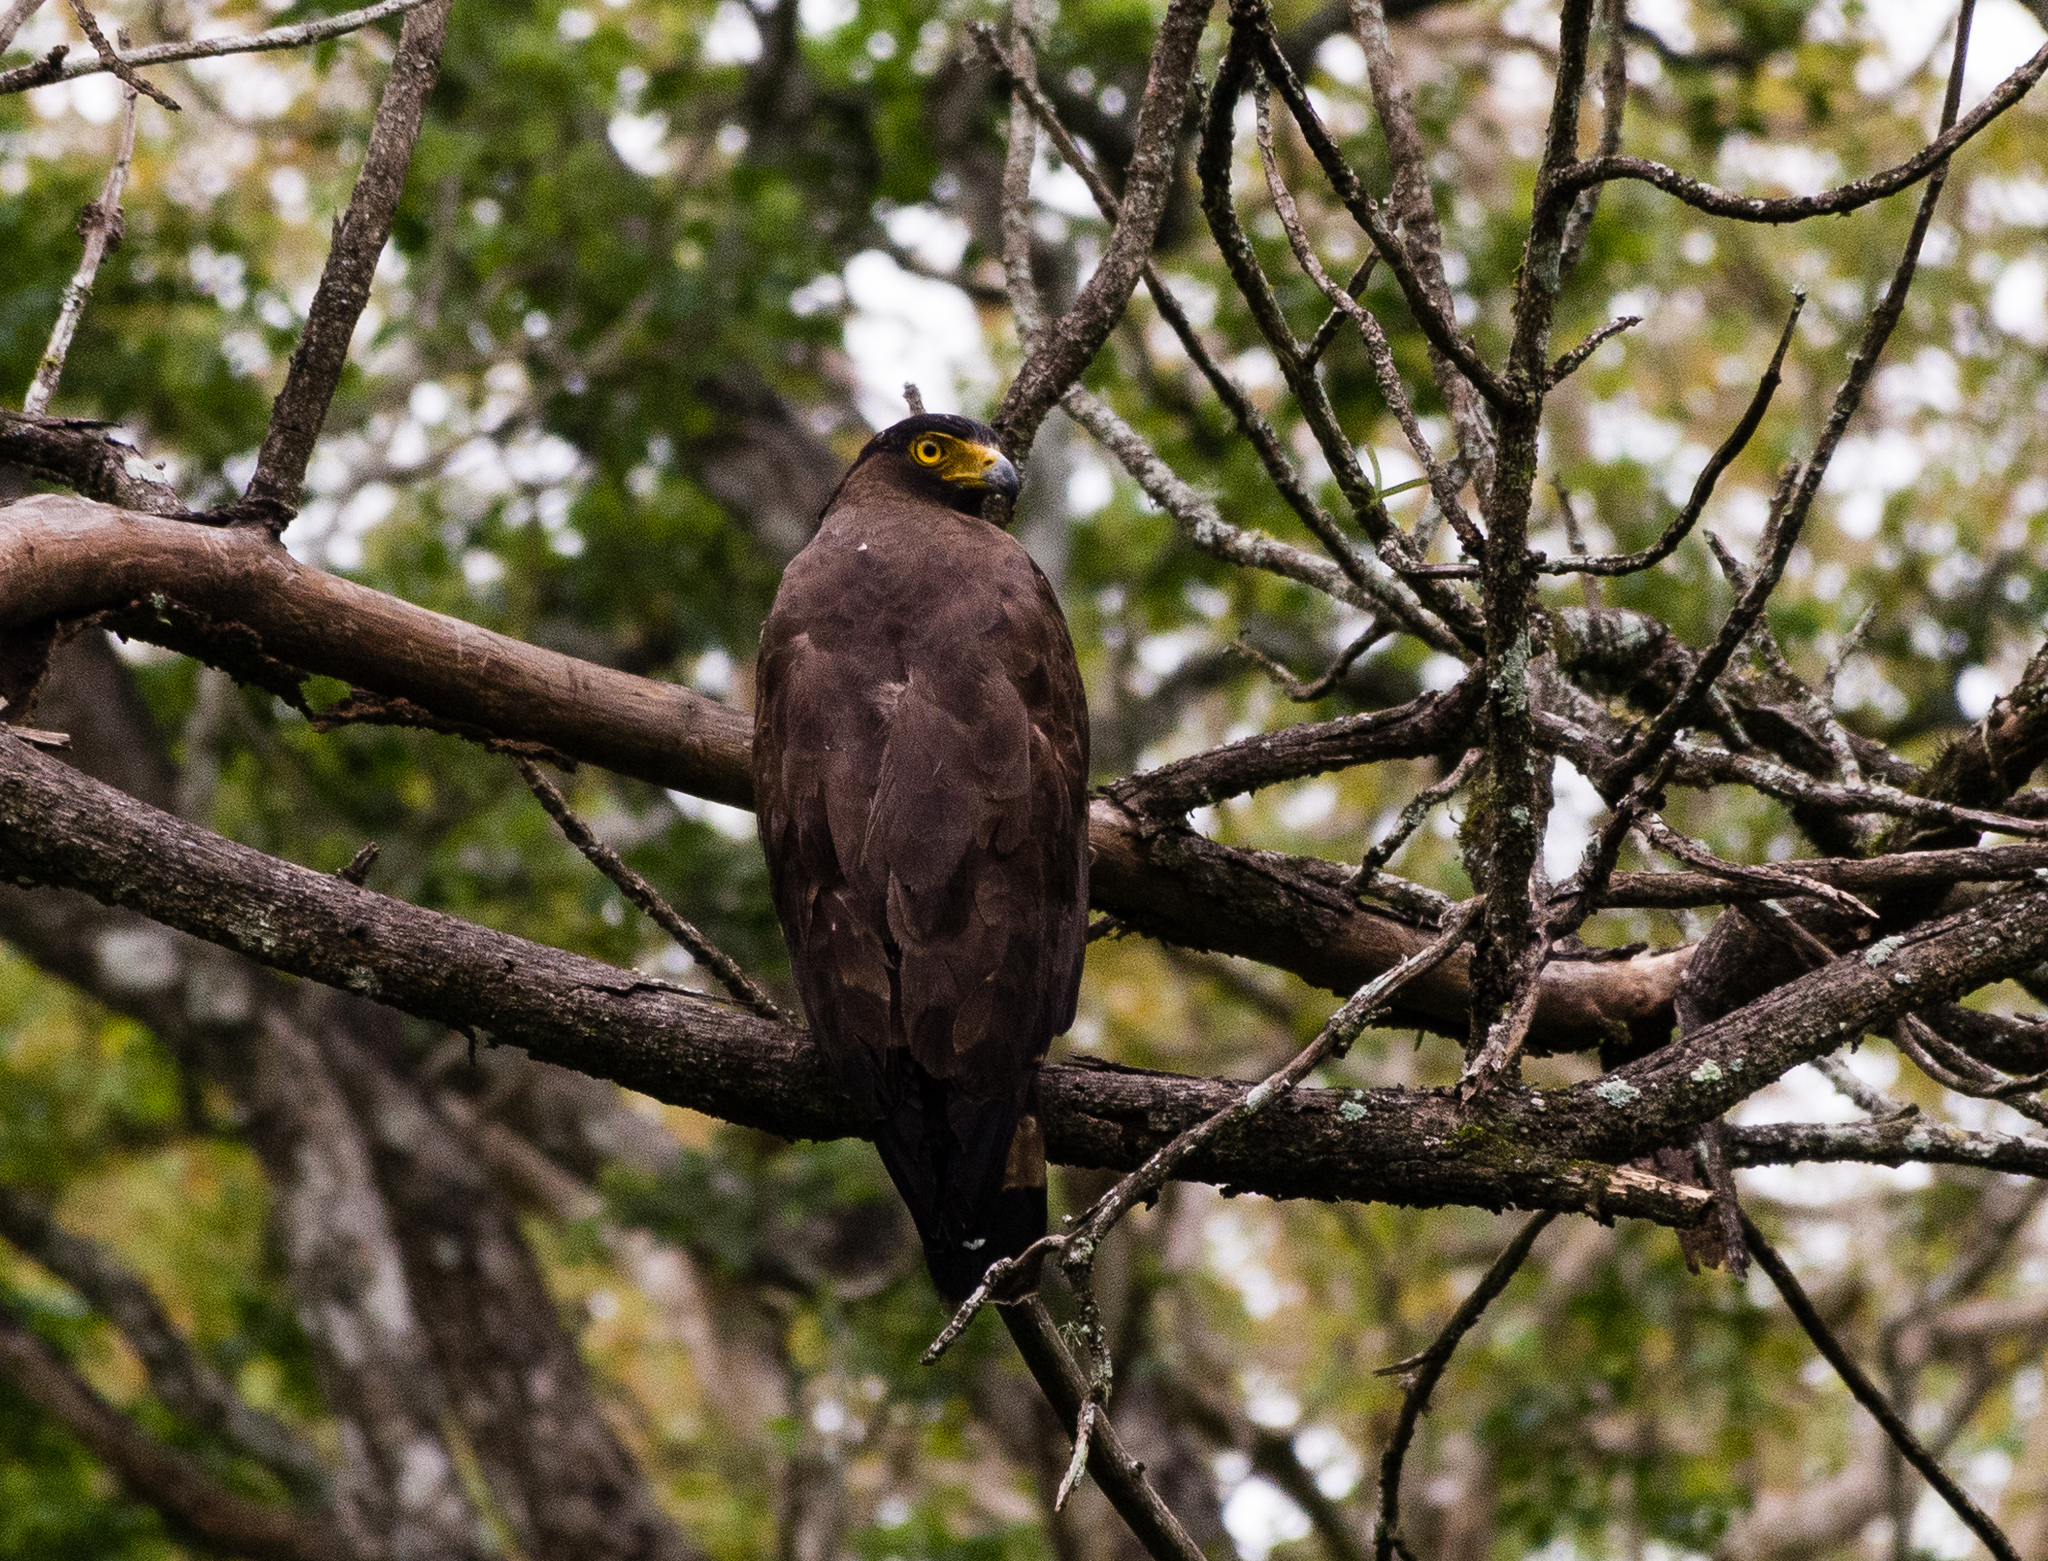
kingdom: Animalia
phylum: Chordata
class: Aves
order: Accipitriformes
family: Accipitridae
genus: Spilornis
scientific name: Spilornis cheela
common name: Crested serpent eagle
